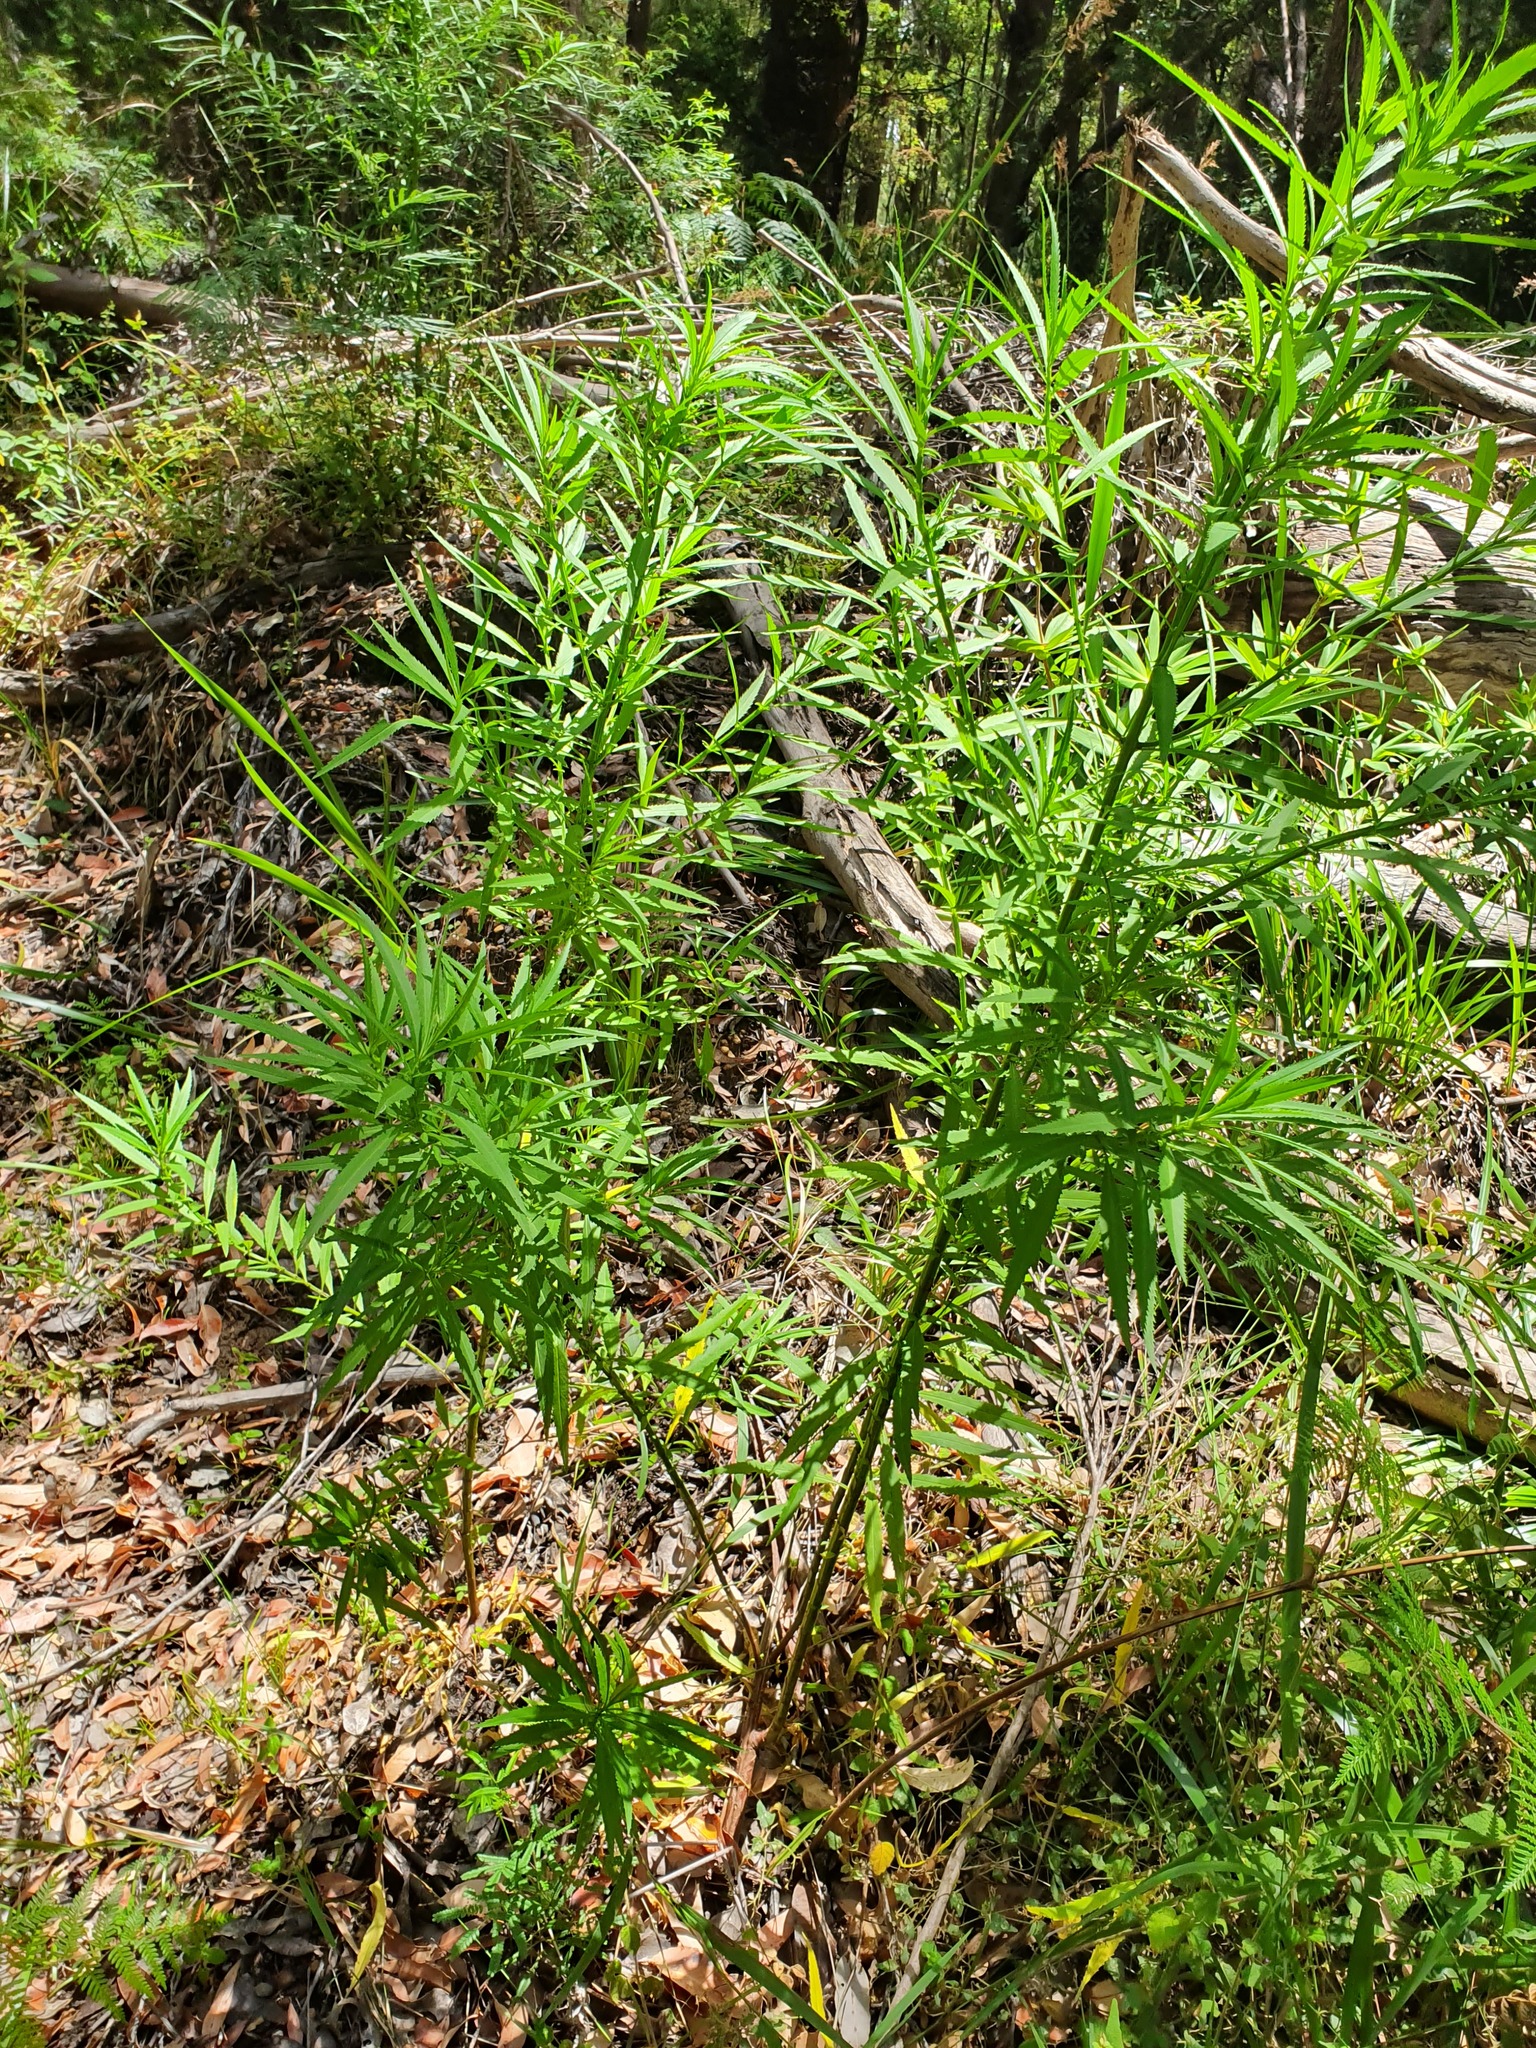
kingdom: Plantae
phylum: Tracheophyta
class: Magnoliopsida
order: Saxifragales
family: Haloragaceae
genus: Glischrocaryon
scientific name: Glischrocaryon racemosum
